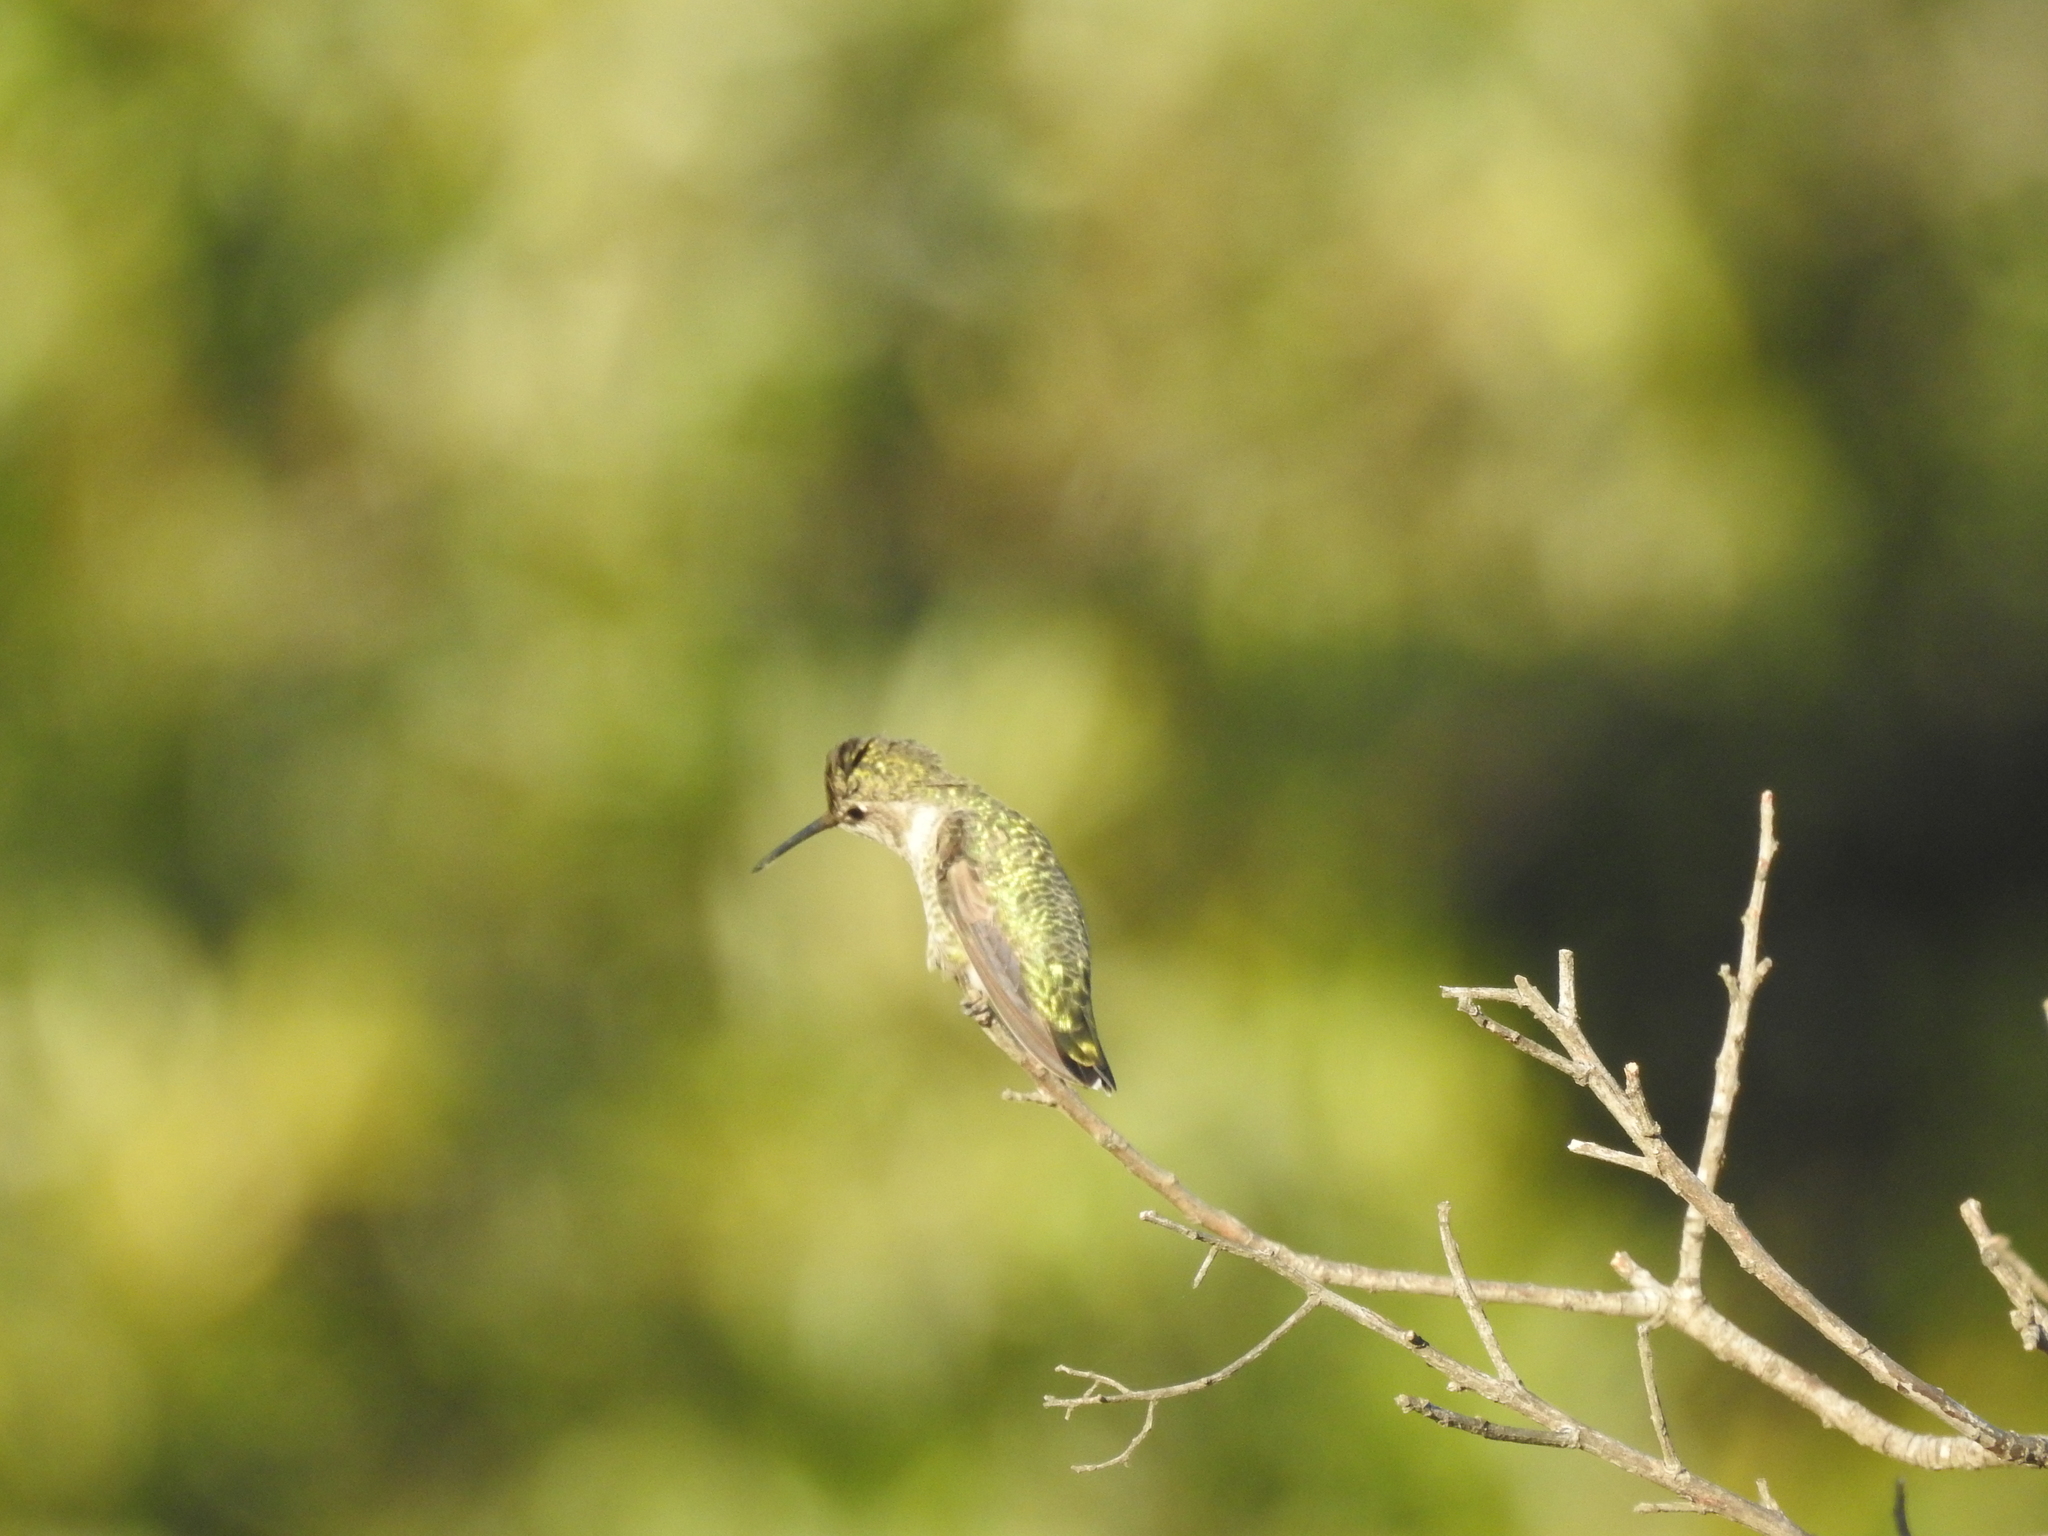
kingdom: Animalia
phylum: Chordata
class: Aves
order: Apodiformes
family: Trochilidae
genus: Calypte
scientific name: Calypte anna
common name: Anna's hummingbird
